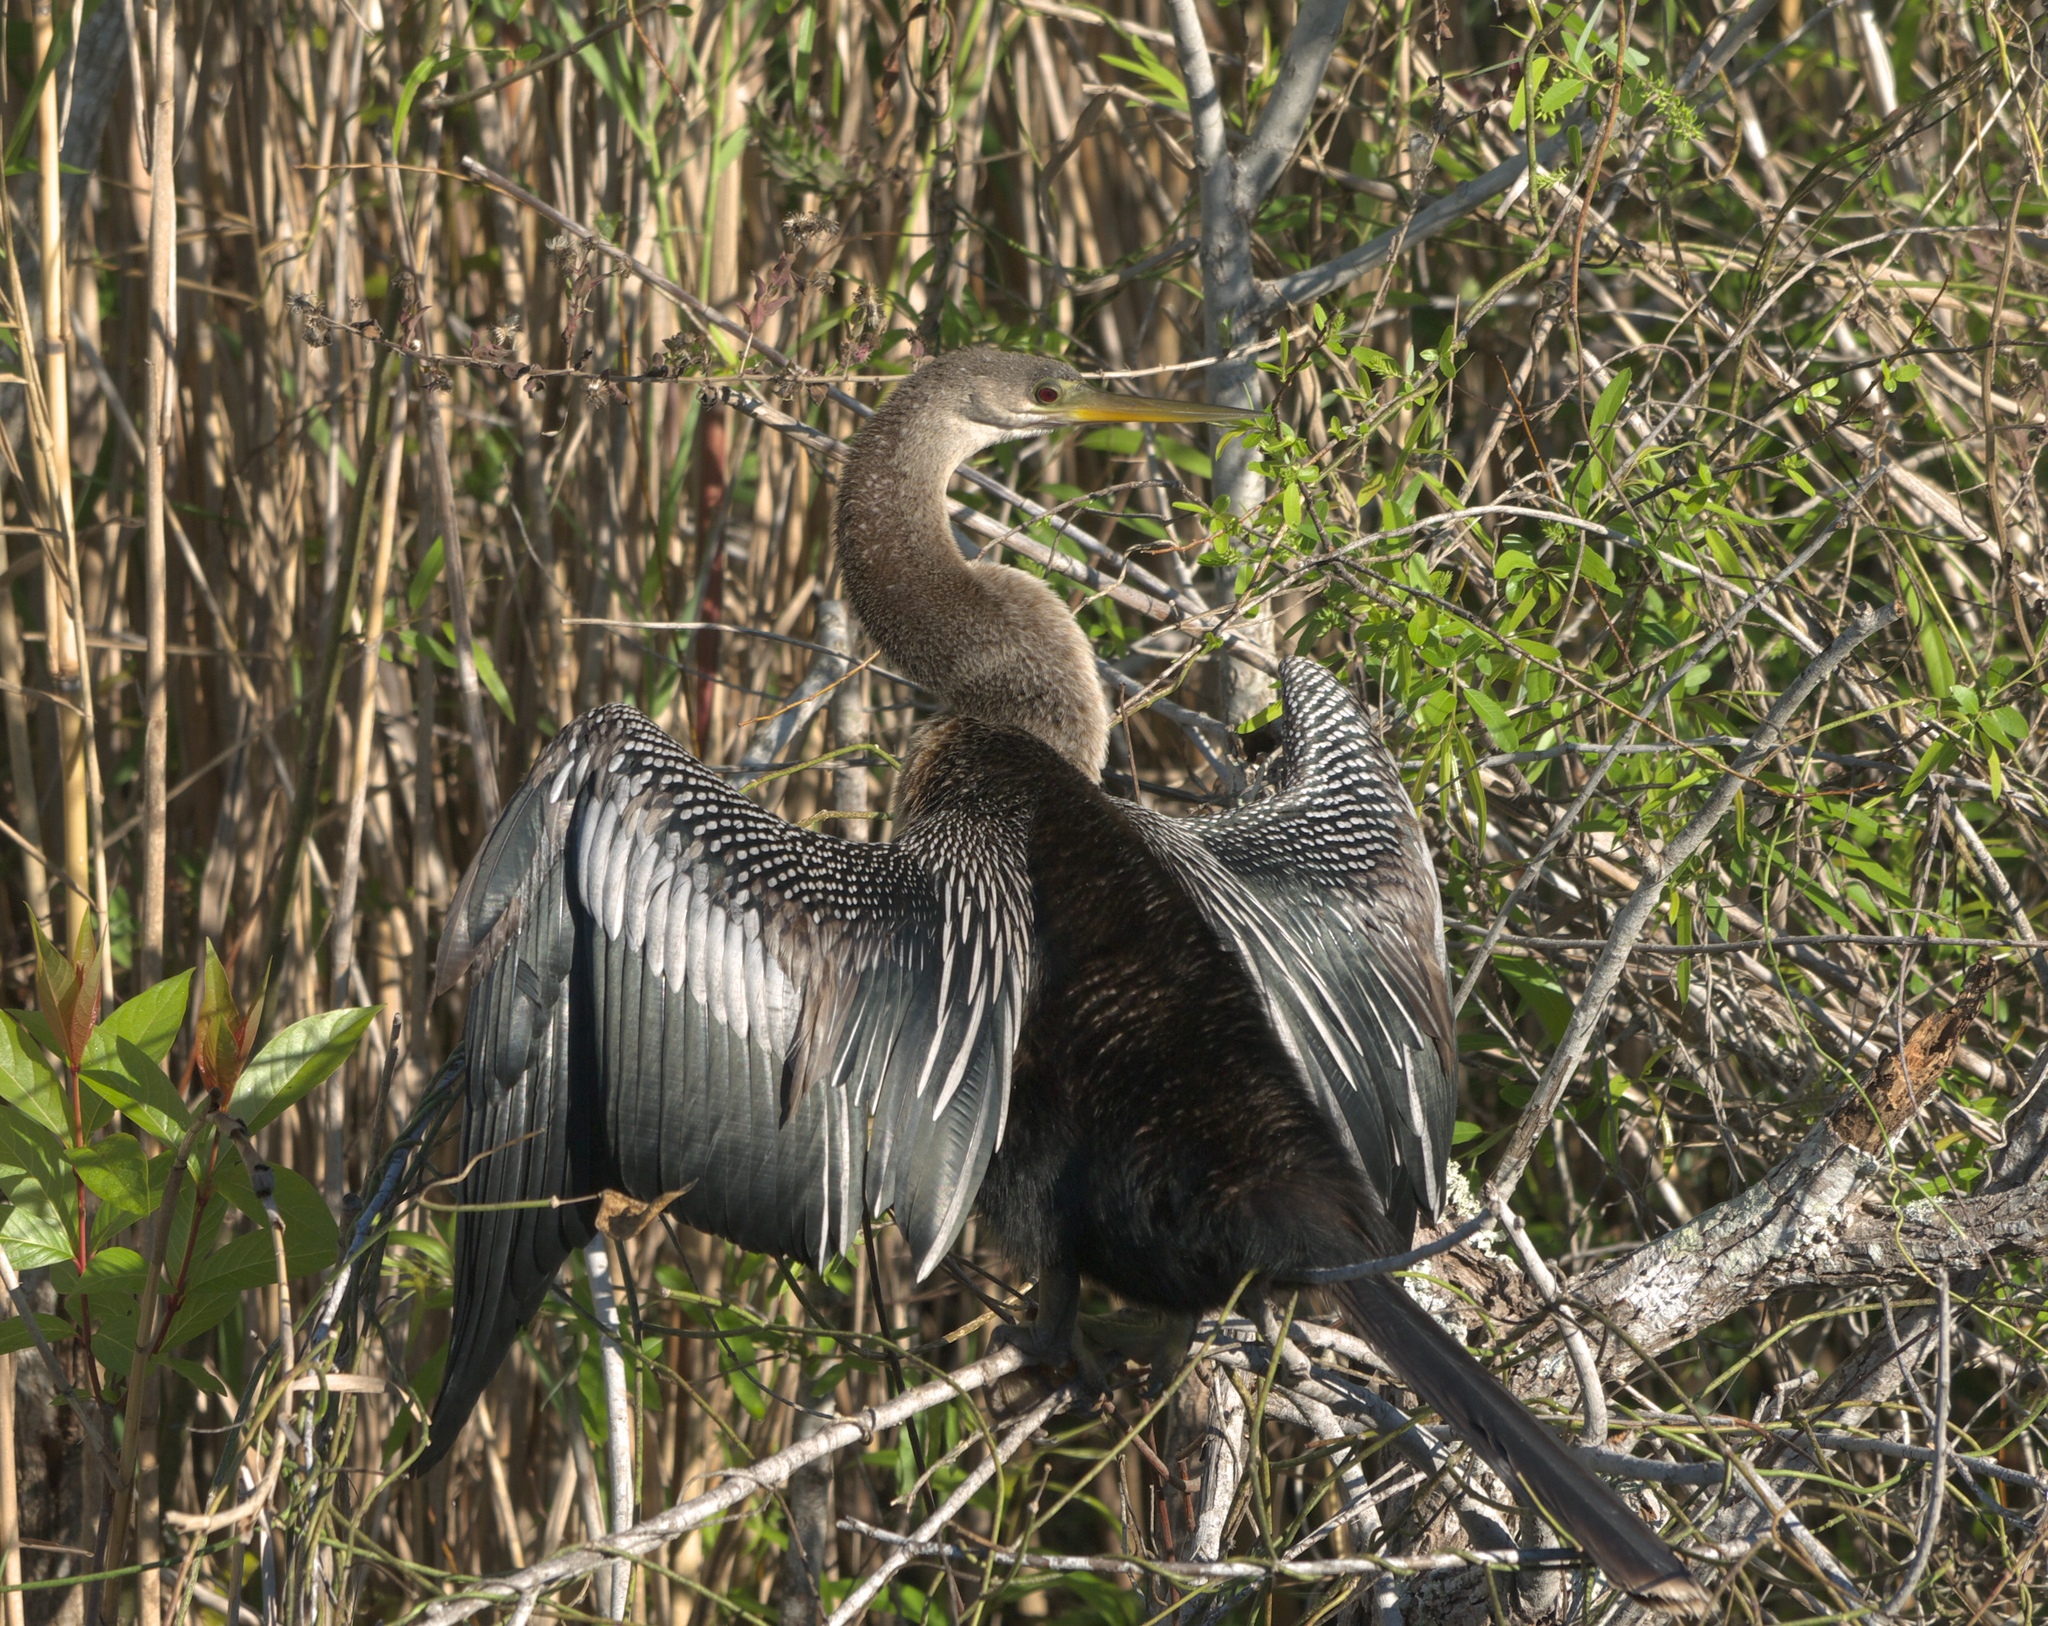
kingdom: Animalia
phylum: Chordata
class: Aves
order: Suliformes
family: Anhingidae
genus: Anhinga
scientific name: Anhinga anhinga
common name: Anhinga
